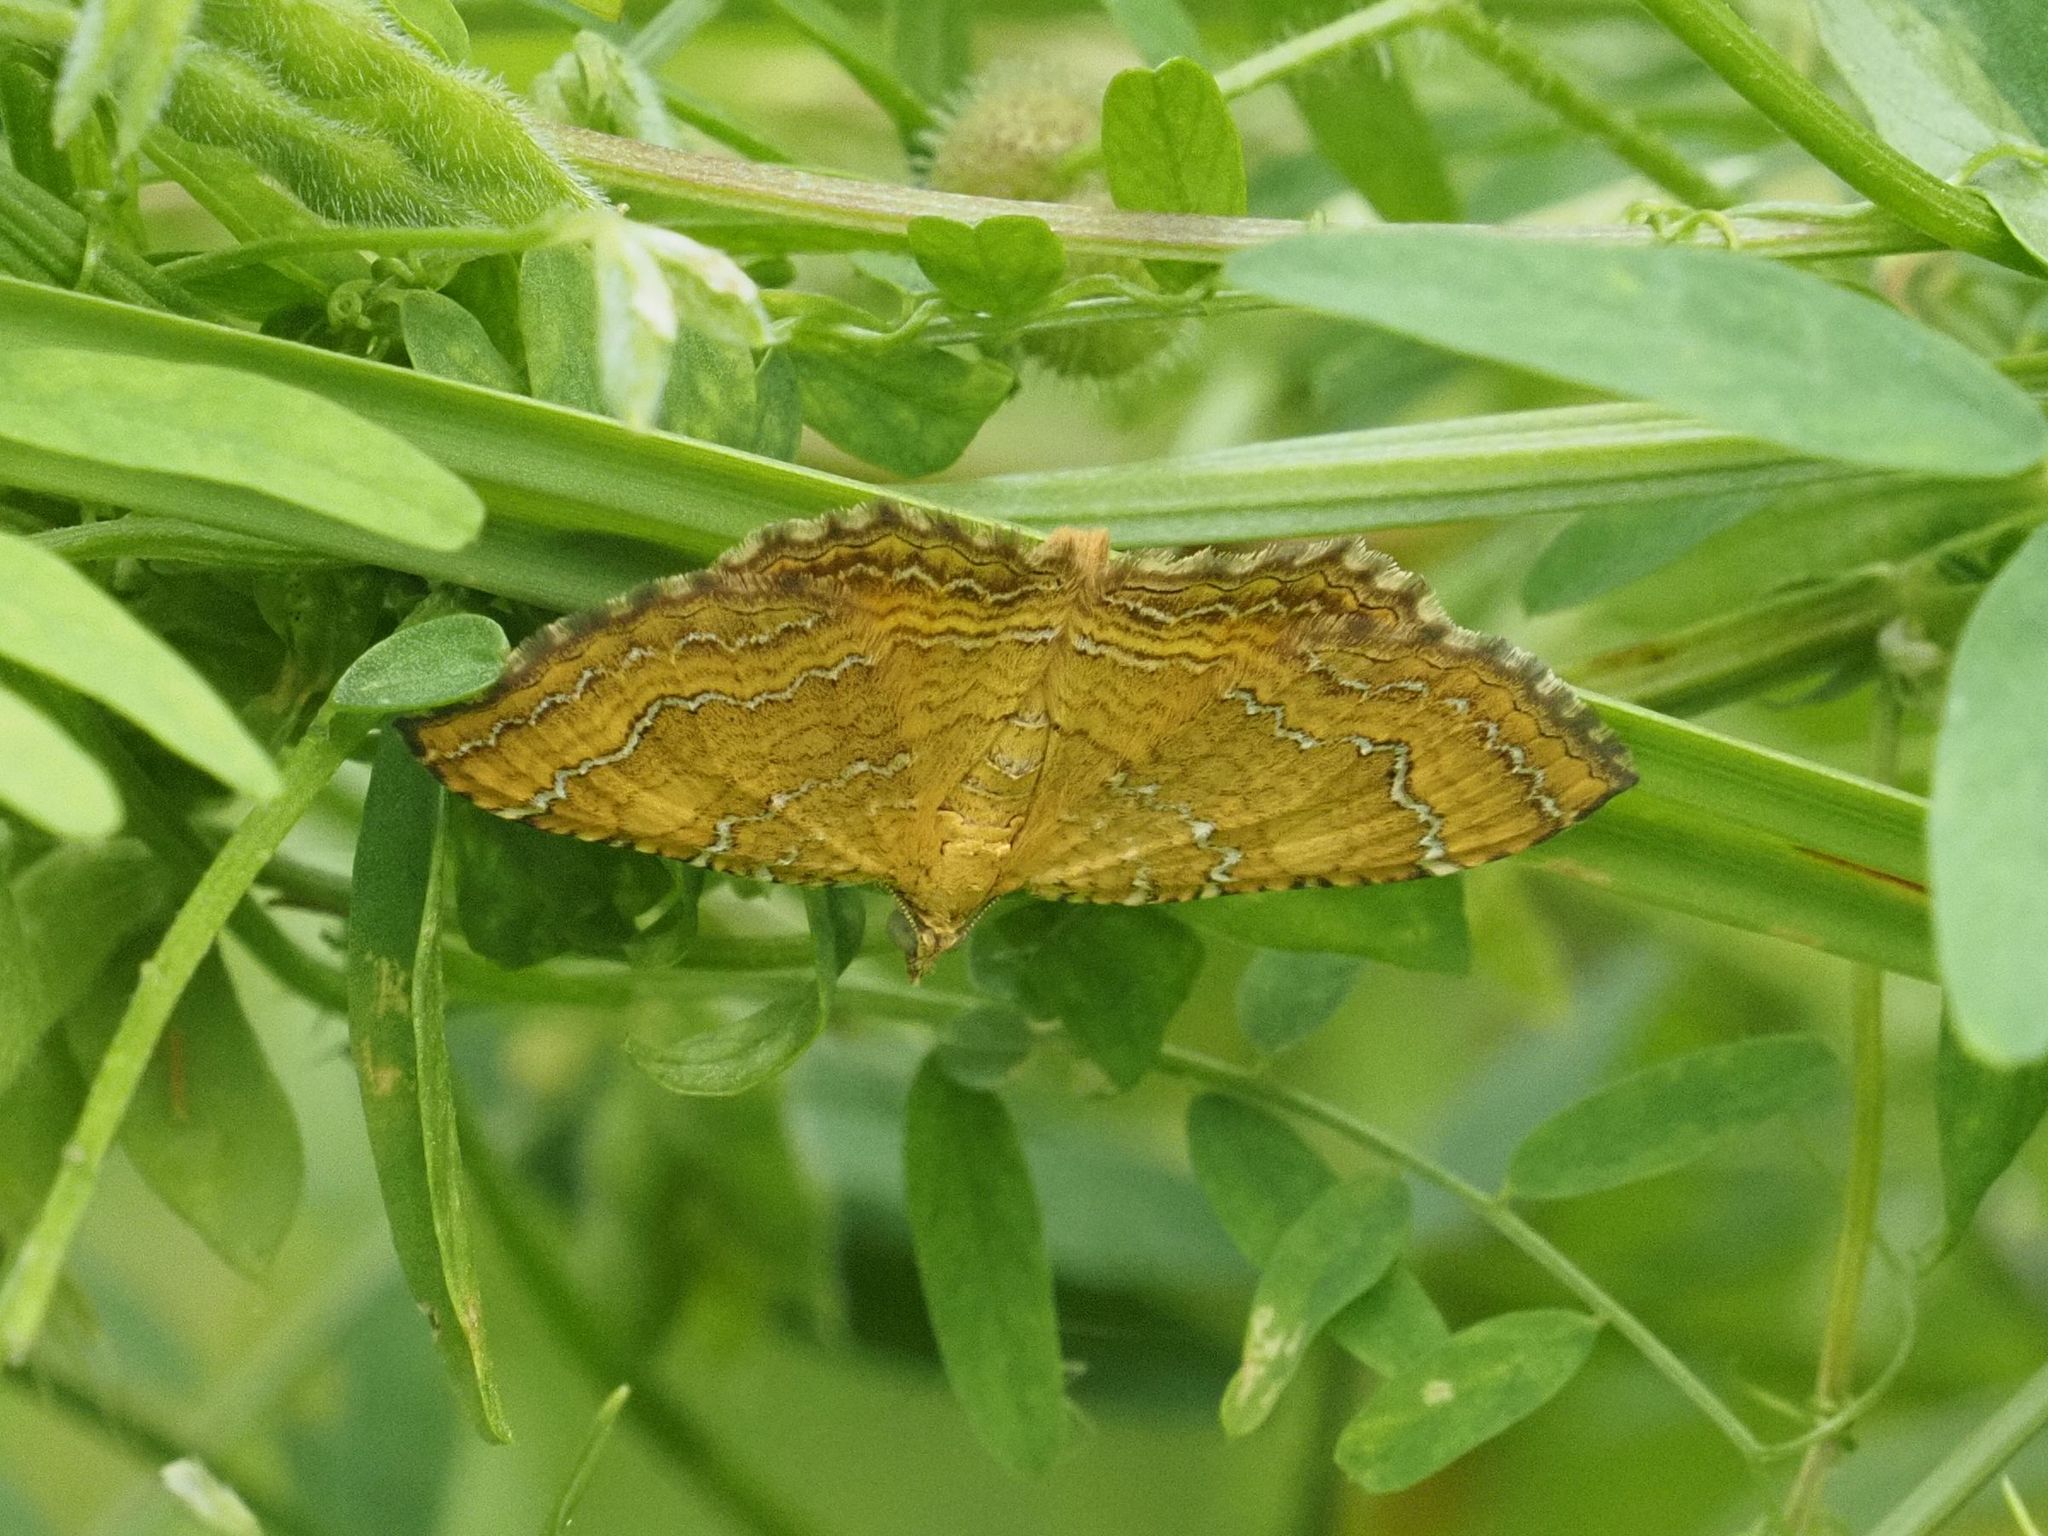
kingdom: Animalia
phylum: Arthropoda
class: Insecta
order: Lepidoptera
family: Geometridae
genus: Camptogramma
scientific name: Camptogramma bilineata
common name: Yellow shell
